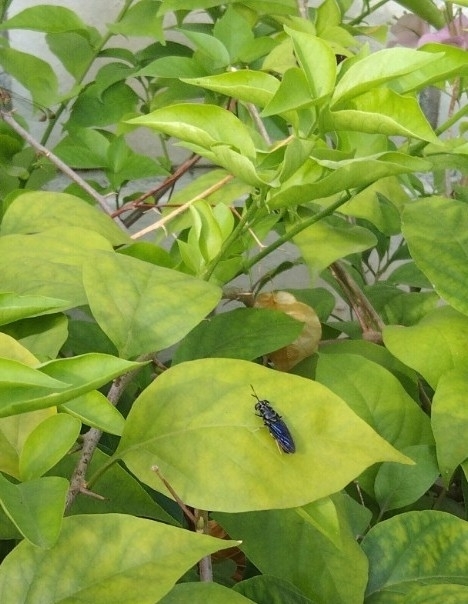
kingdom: Animalia
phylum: Arthropoda
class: Insecta
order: Diptera
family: Stratiomyidae
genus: Hermetia
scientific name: Hermetia illucens
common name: Black soldier fly
